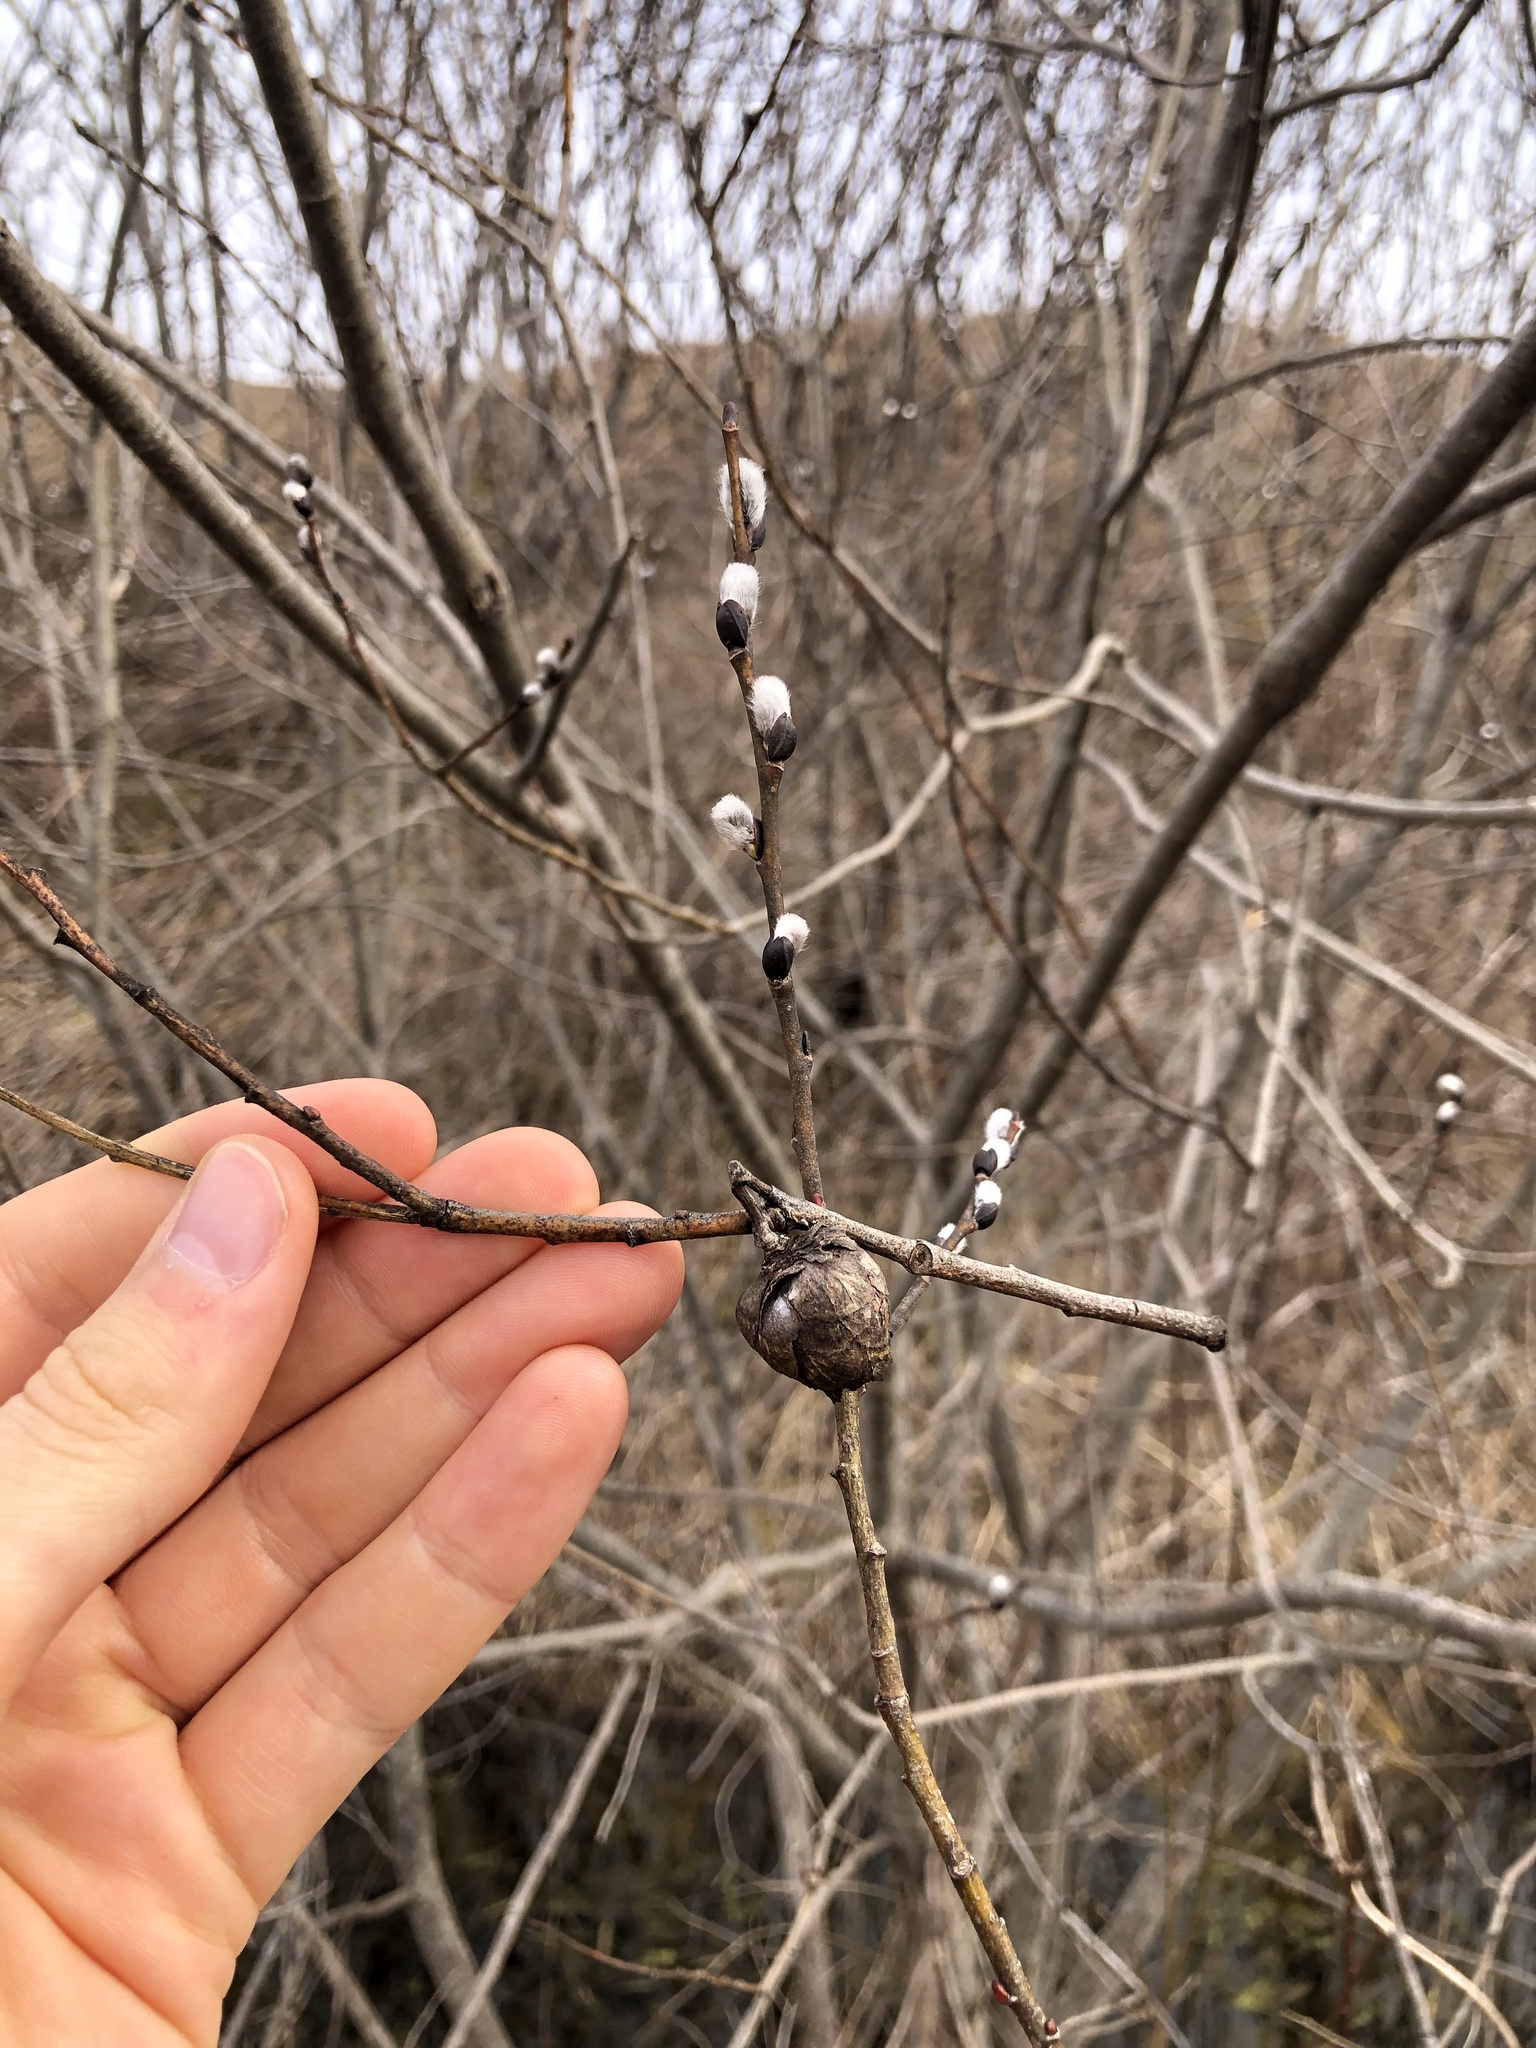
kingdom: Animalia
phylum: Arthropoda
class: Insecta
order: Diptera
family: Cecidomyiidae
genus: Rabdophaga
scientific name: Rabdophaga strobiloides
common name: Willow pinecone gall midge
